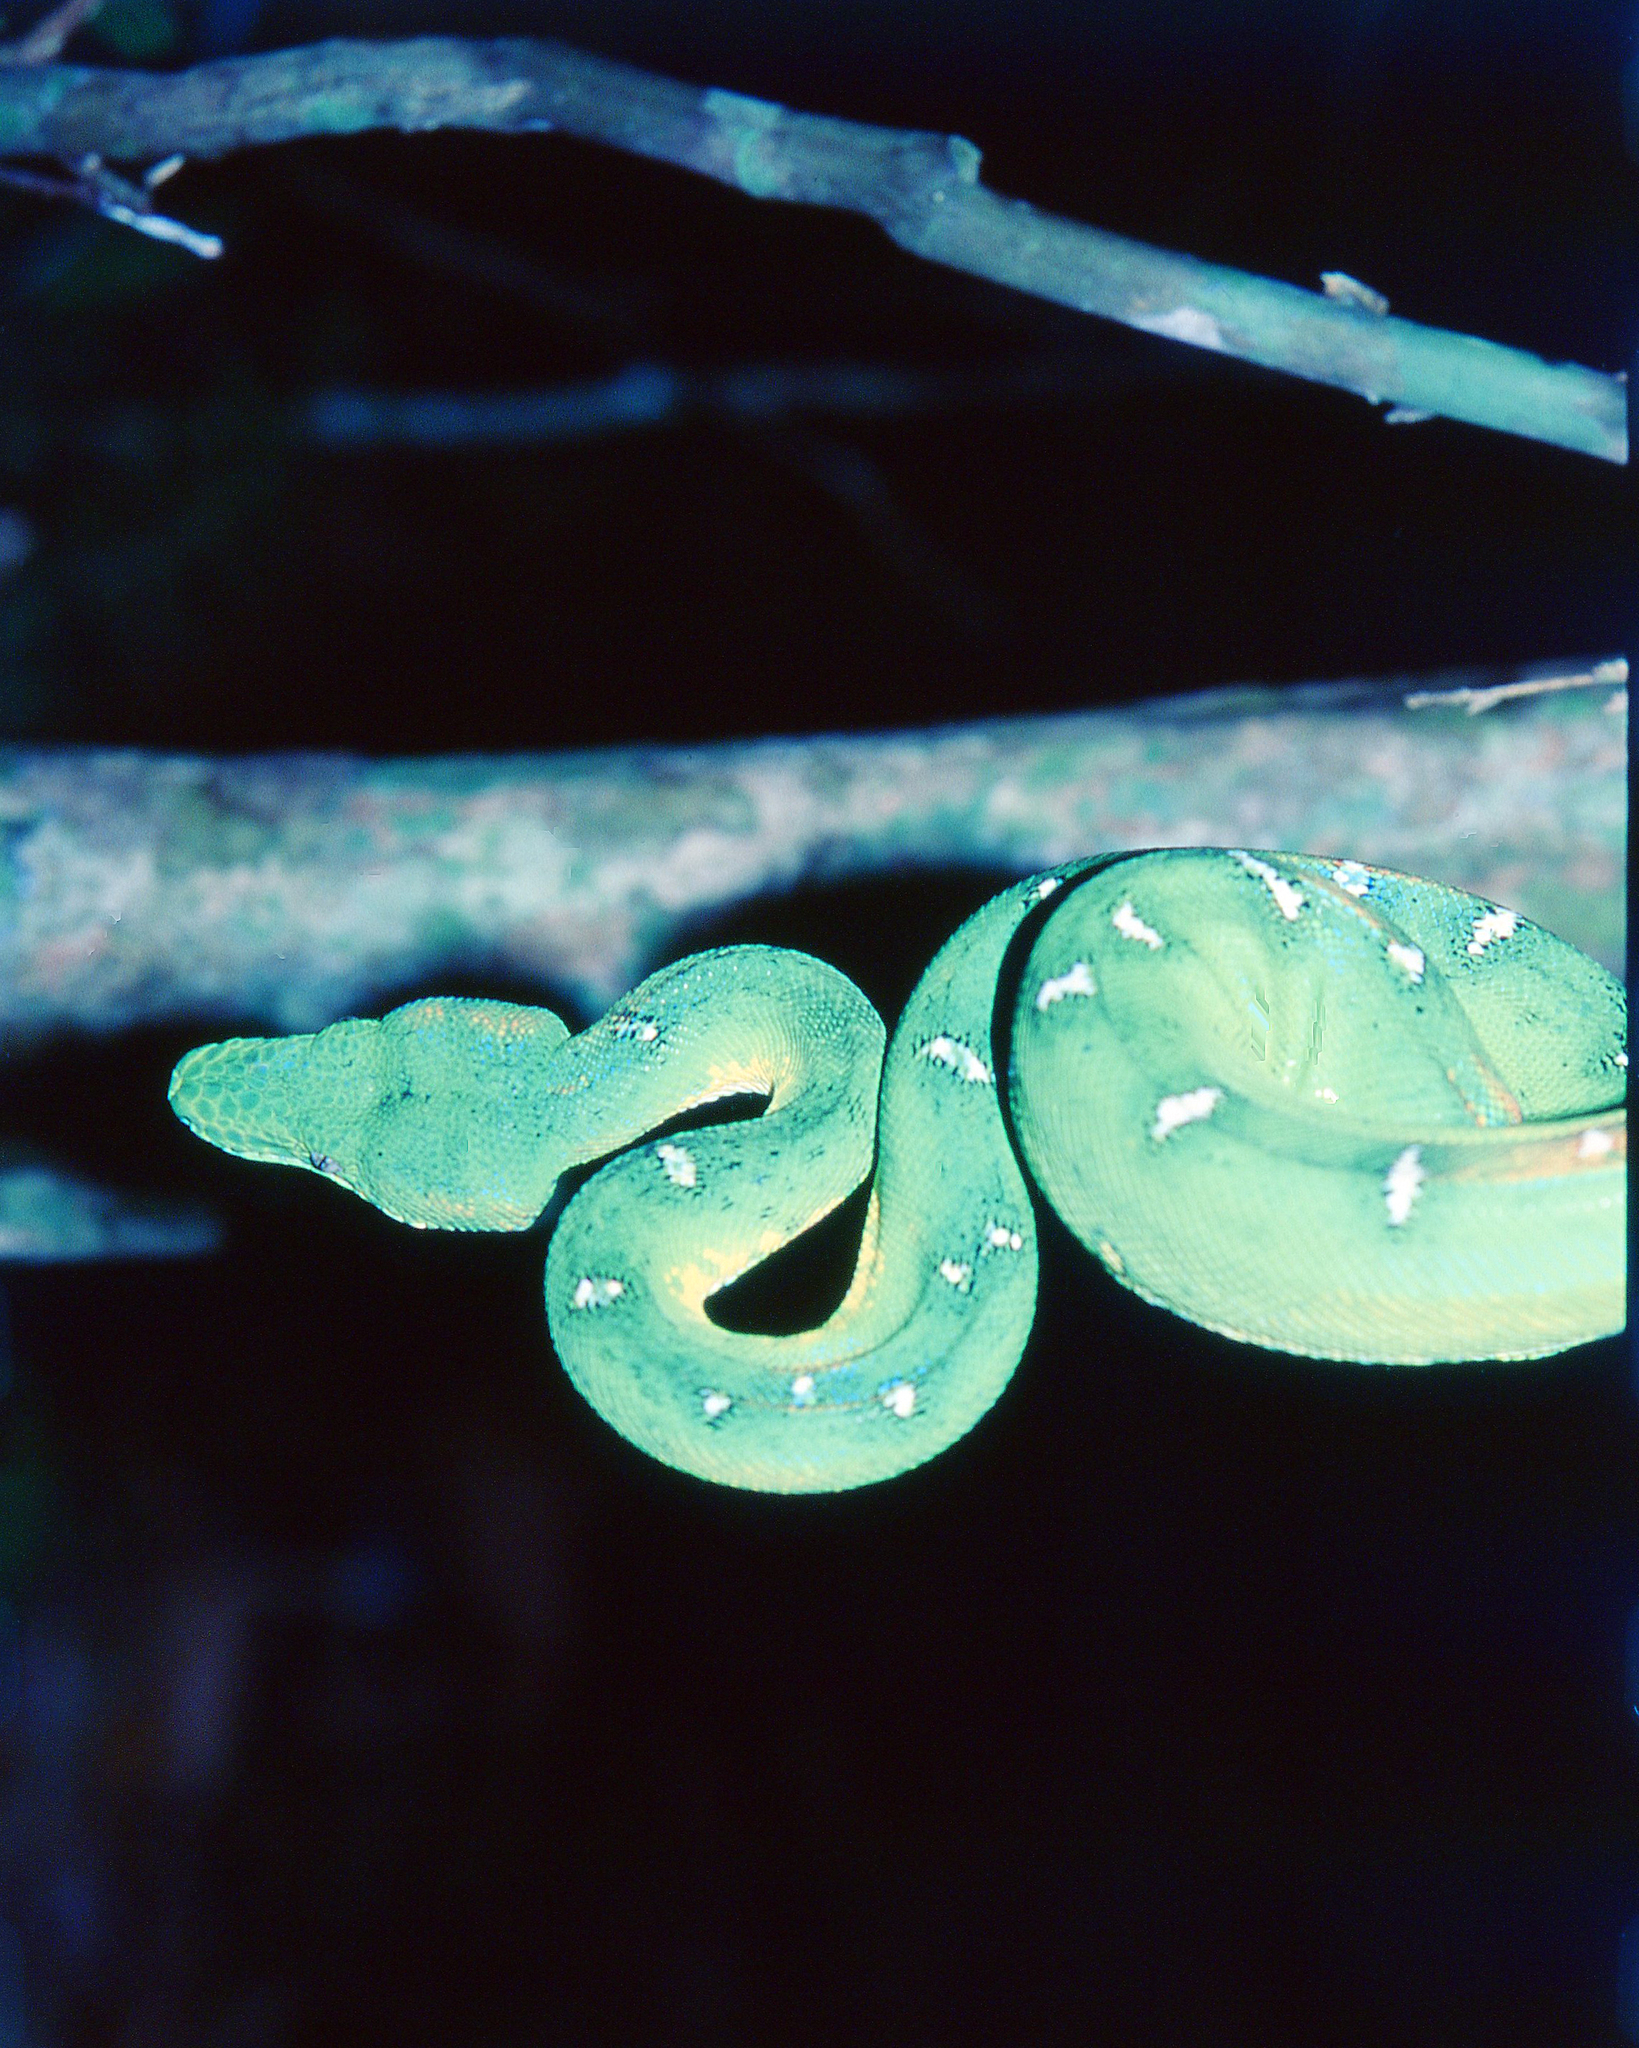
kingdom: Animalia
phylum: Chordata
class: Squamata
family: Boidae
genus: Corallus
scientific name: Corallus batesii
